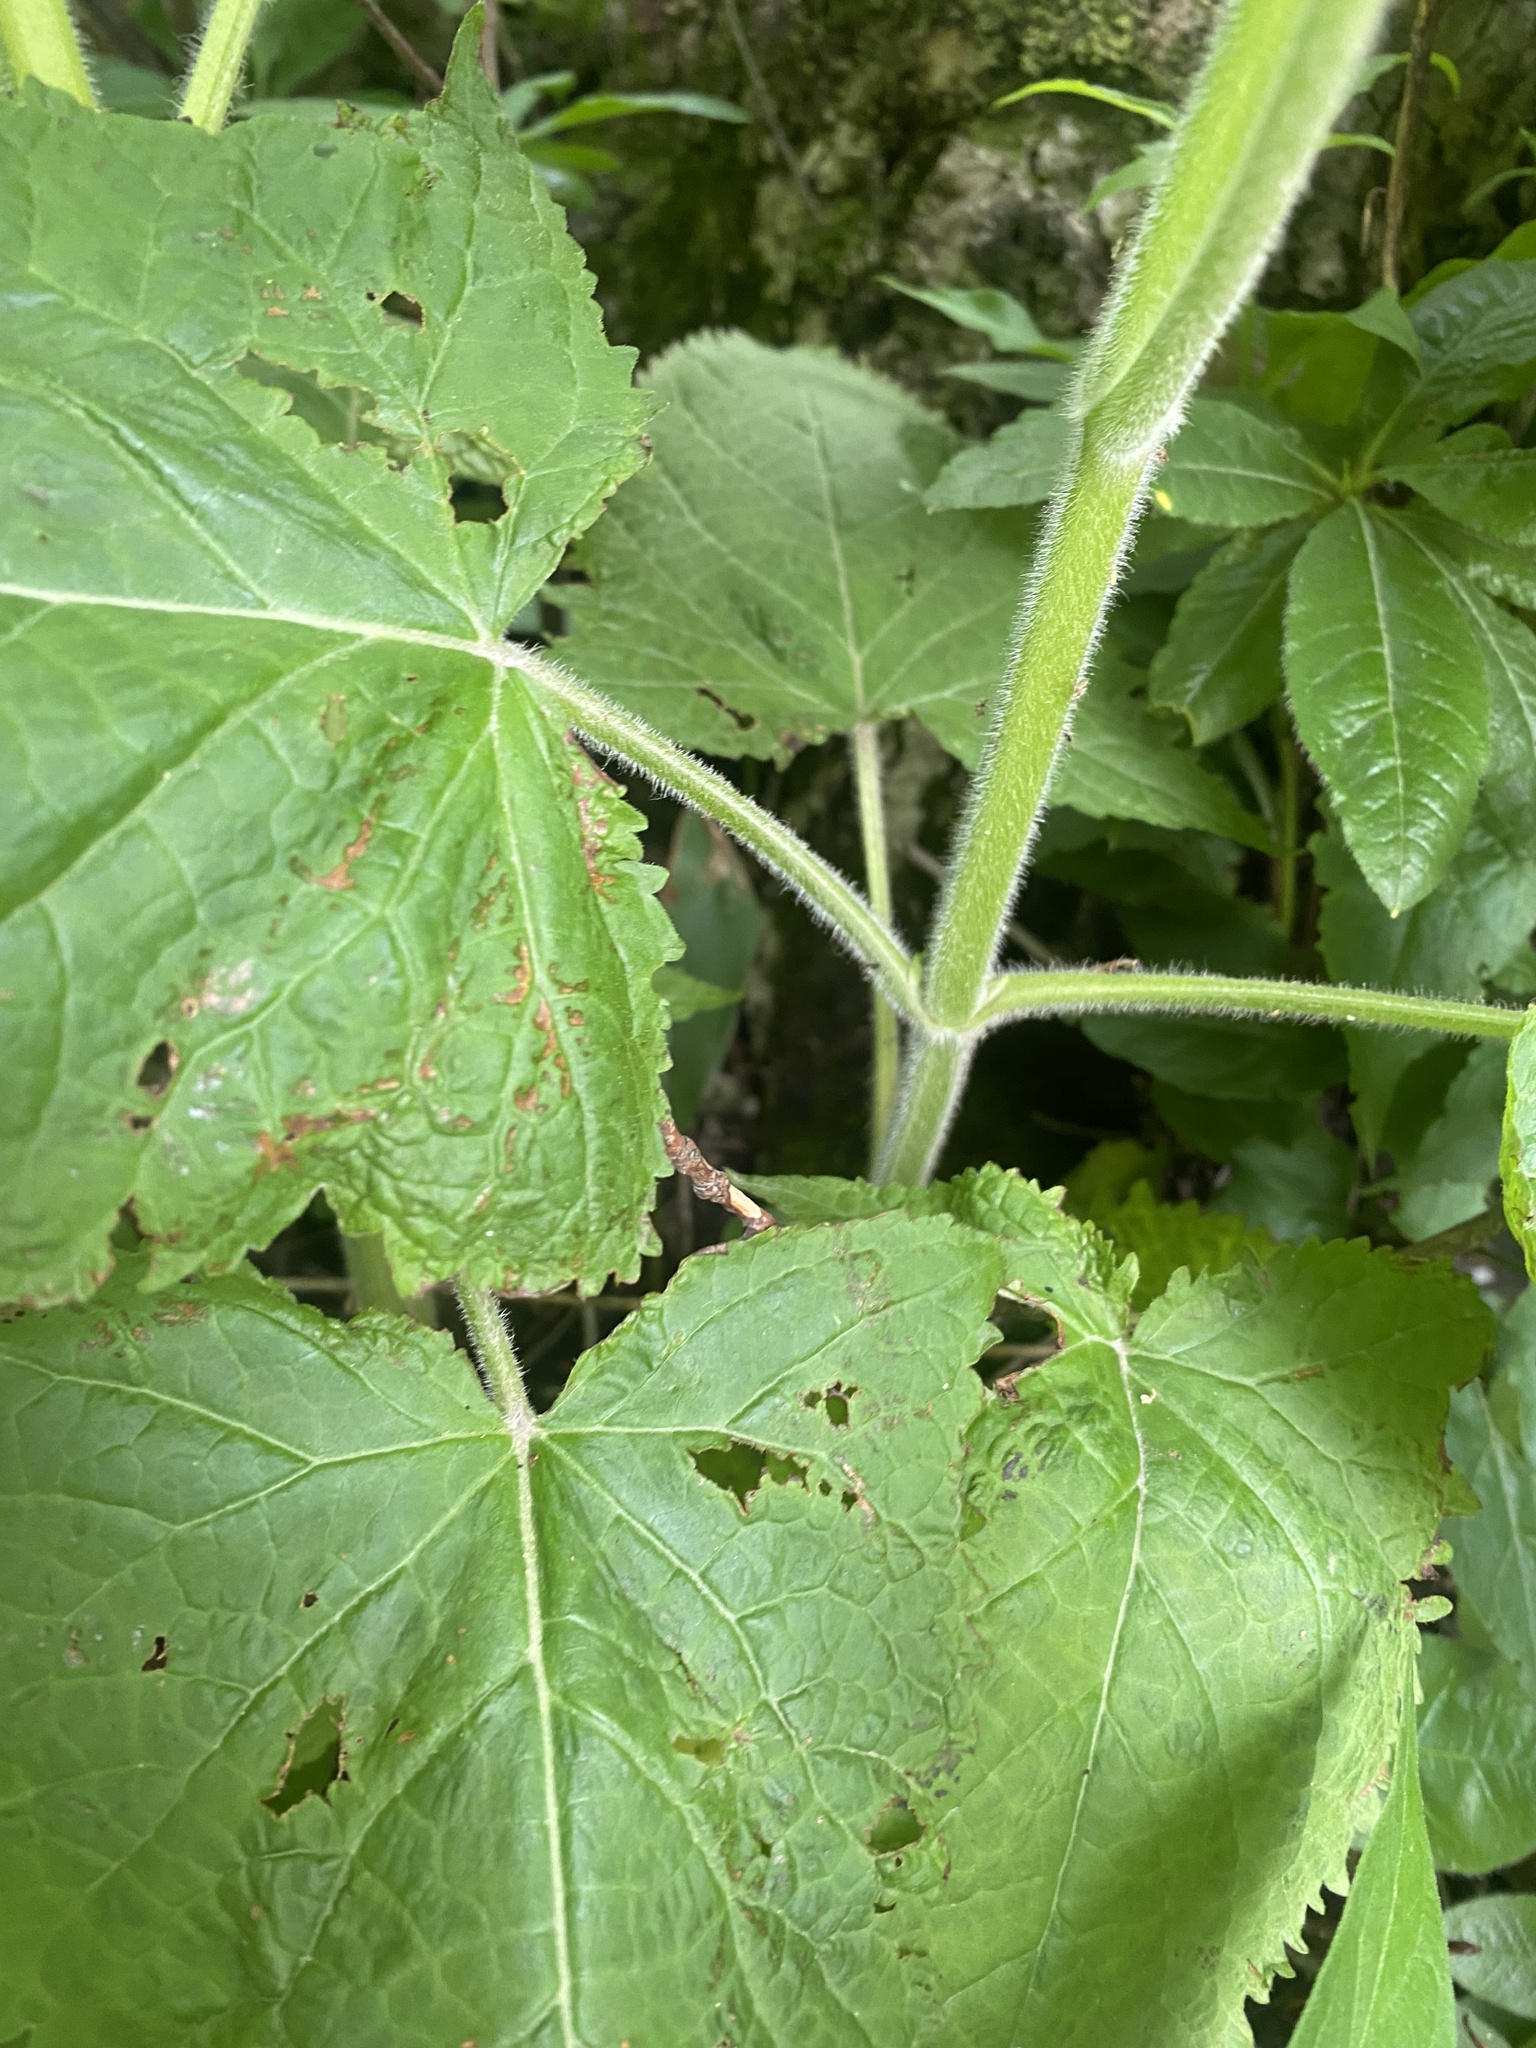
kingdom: Plantae
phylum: Tracheophyta
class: Magnoliopsida
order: Lamiales
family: Lamiaceae
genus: Salvia
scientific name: Salvia glutinosa
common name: Sticky clary
